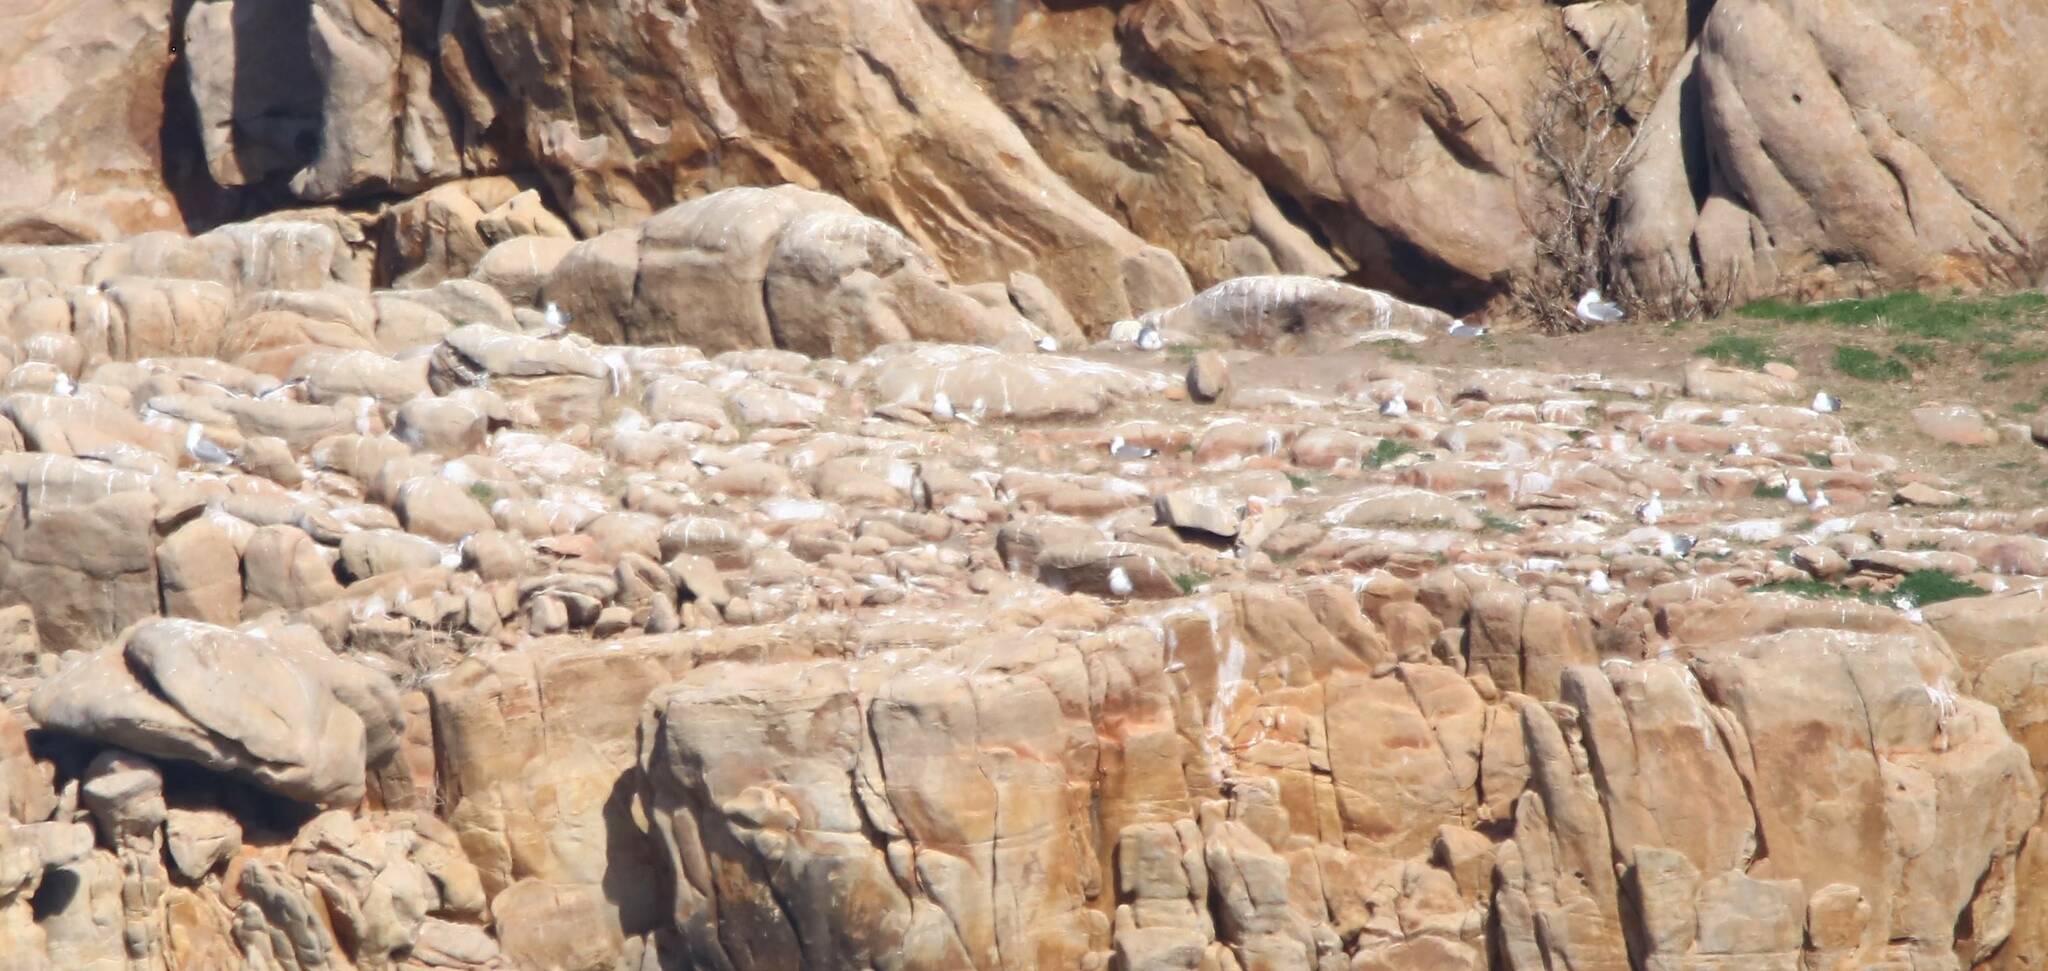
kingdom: Animalia
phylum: Chordata
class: Aves
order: Charadriiformes
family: Laridae
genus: Larus
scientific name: Larus michahellis
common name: Yellow-legged gull
